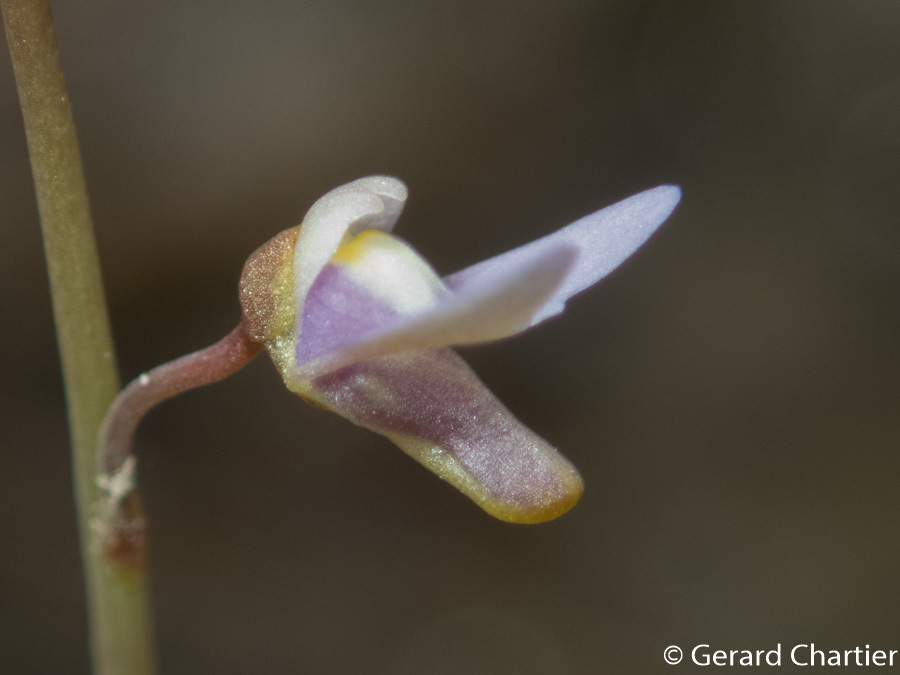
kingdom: Plantae
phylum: Tracheophyta
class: Magnoliopsida
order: Lamiales
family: Lentibulariaceae
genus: Utricularia
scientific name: Utricularia limosa
